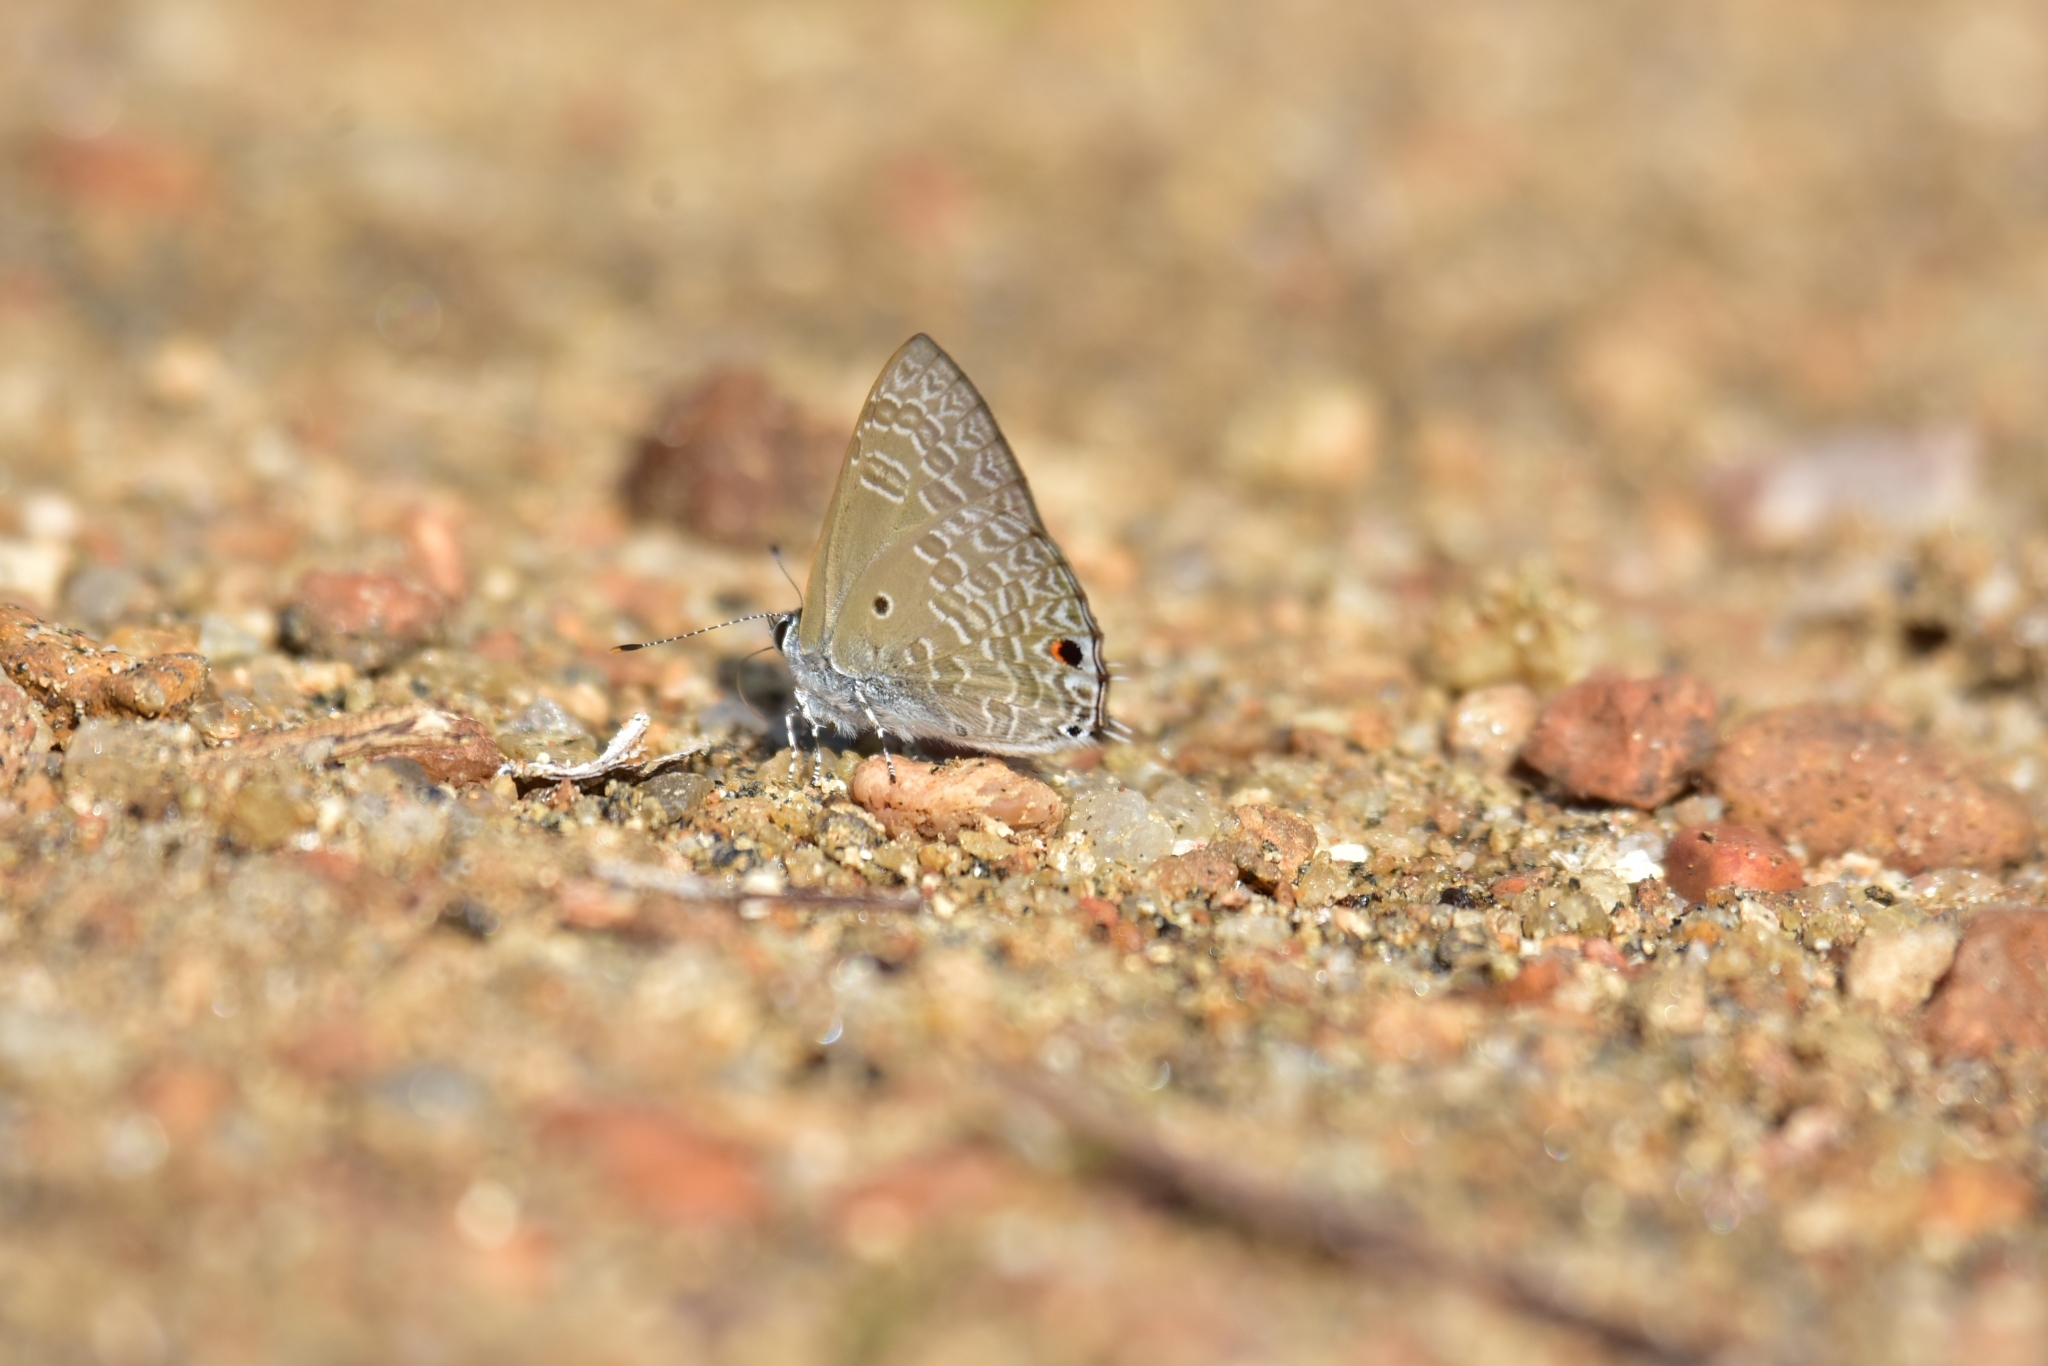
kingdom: Animalia
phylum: Arthropoda
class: Insecta
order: Lepidoptera
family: Lycaenidae
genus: Anthene
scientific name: Anthene lycaenina
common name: Pointed ciliate blue
